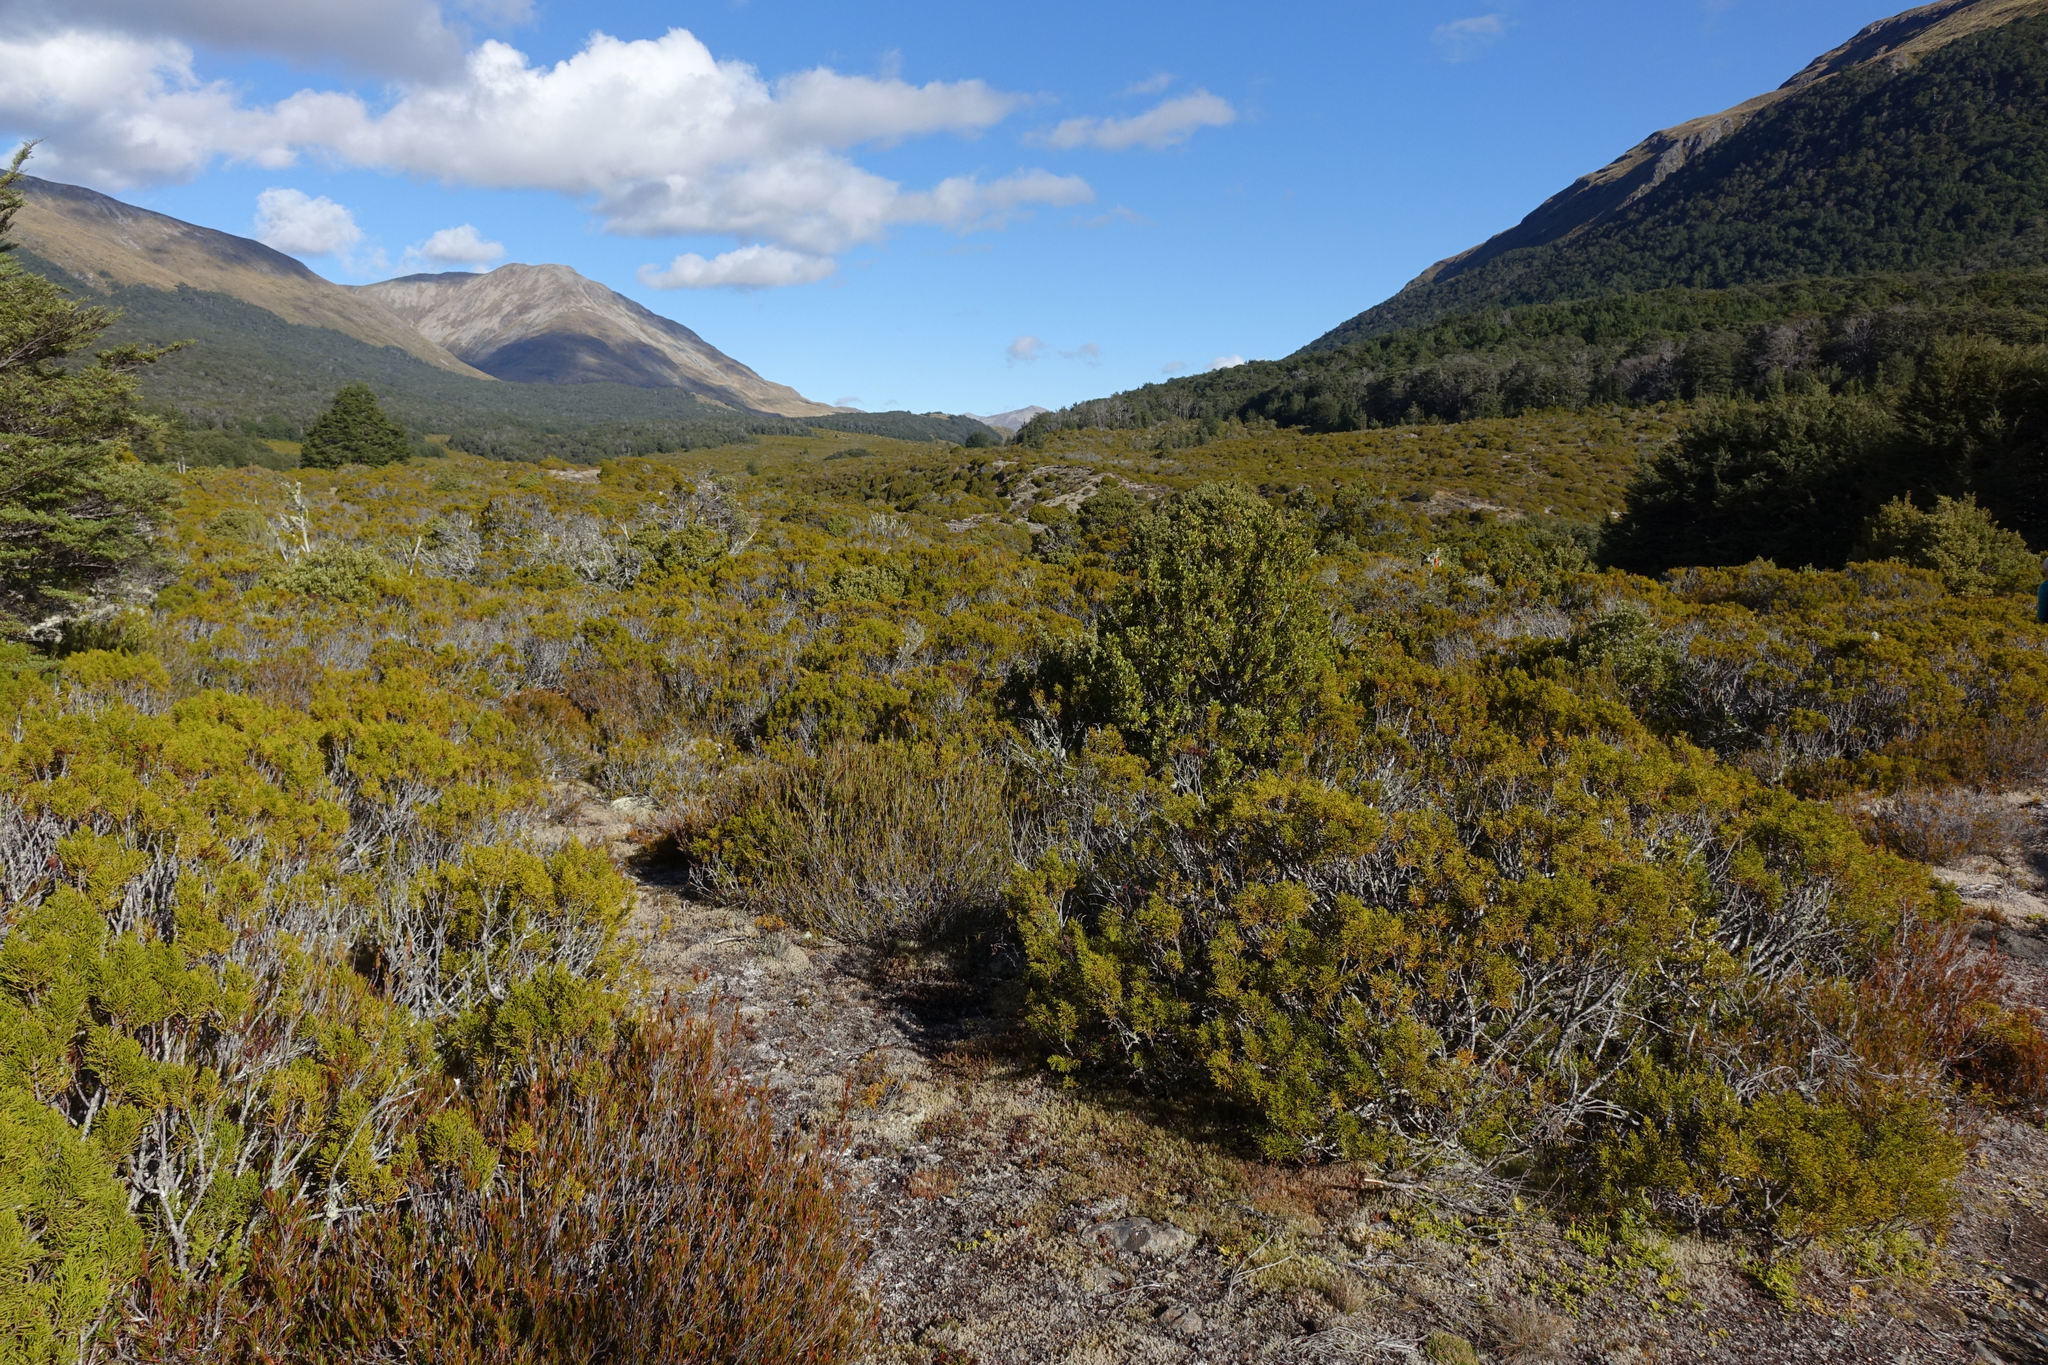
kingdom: Plantae
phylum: Tracheophyta
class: Pinopsida
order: Pinales
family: Podocarpaceae
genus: Halocarpus
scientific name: Halocarpus bidwillii
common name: Bog pine
